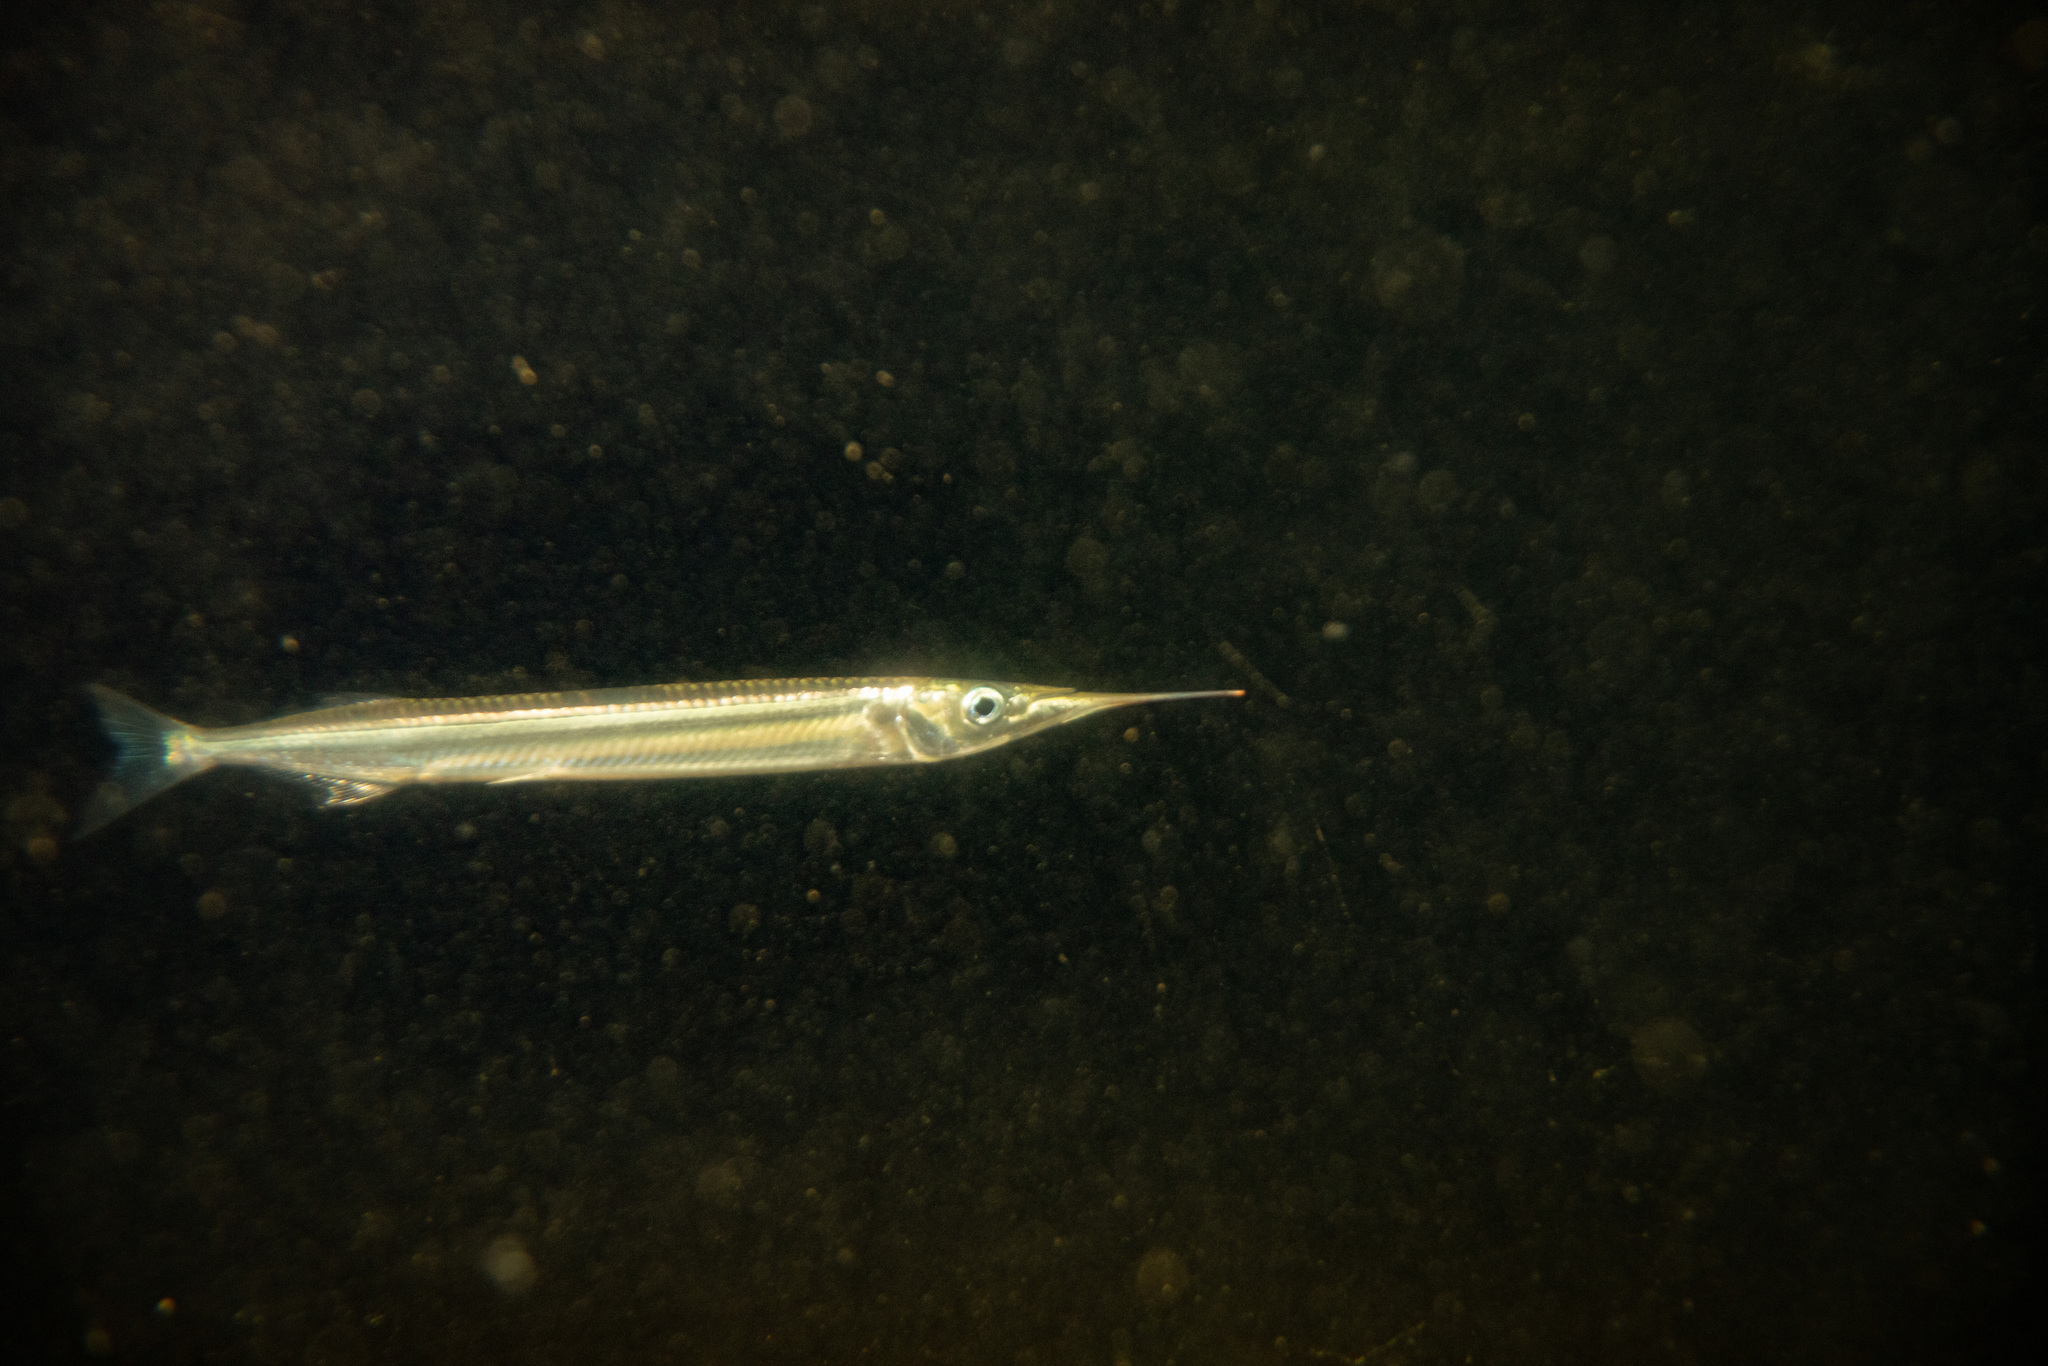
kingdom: Animalia
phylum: Chordata
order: Beloniformes
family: Hemiramphidae
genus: Hyporhamphus
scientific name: Hyporhamphus ihi
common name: Garfish
